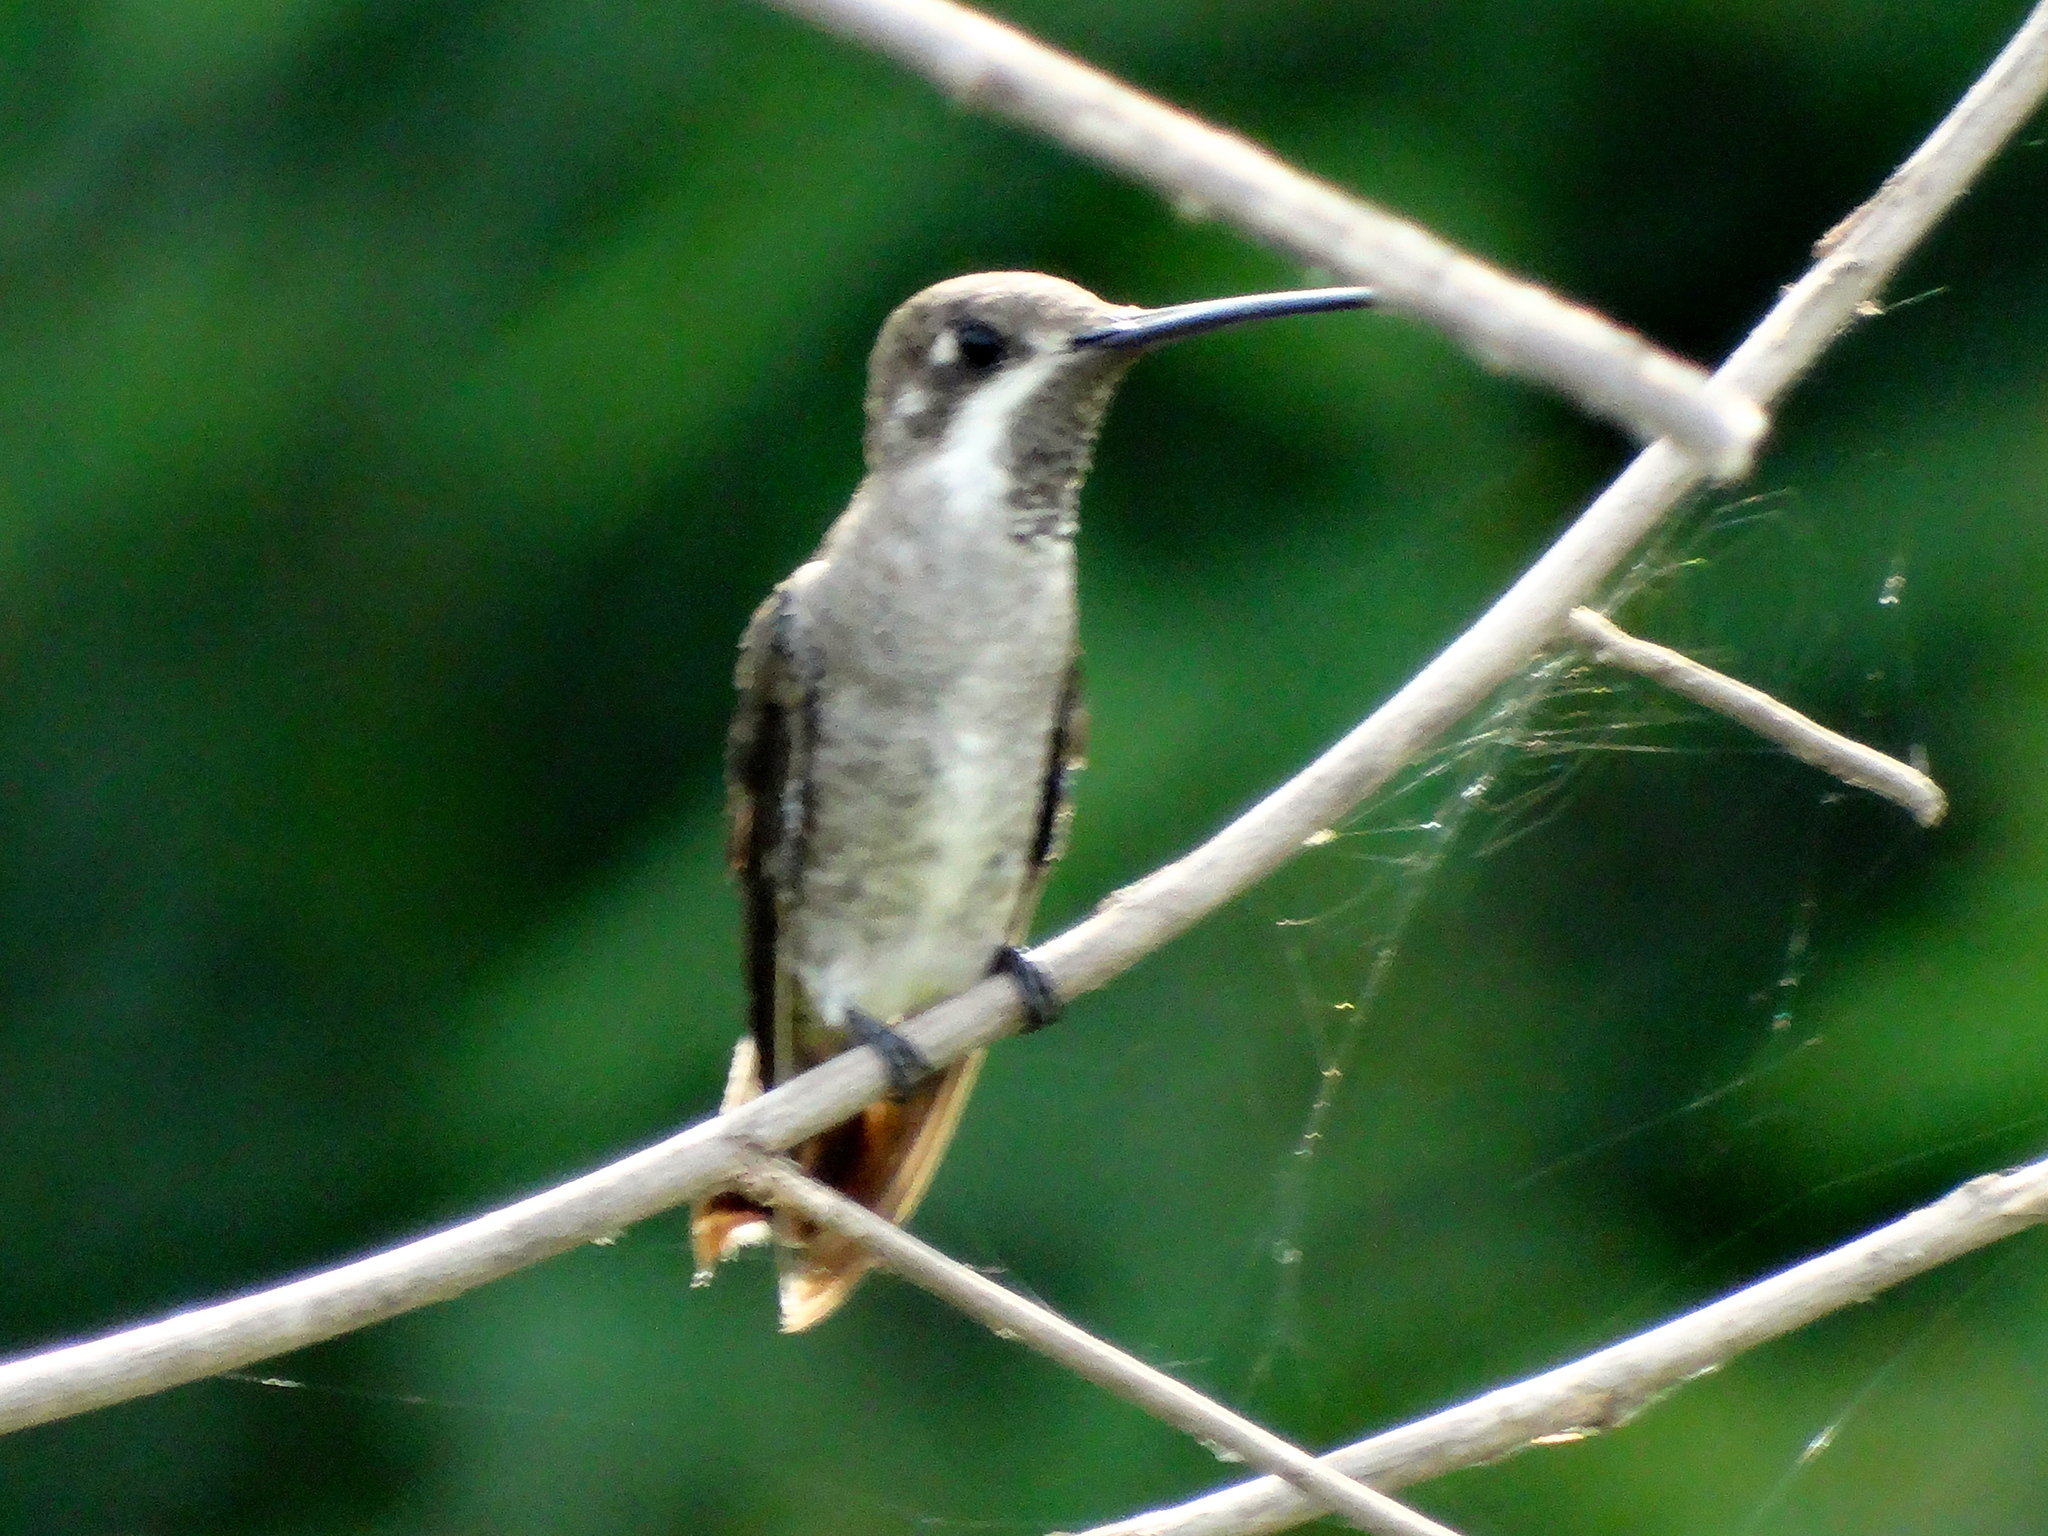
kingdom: Animalia
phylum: Chordata
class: Aves
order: Apodiformes
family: Trochilidae
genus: Heliomaster
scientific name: Heliomaster constantii
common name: Plain-capped starthroat
